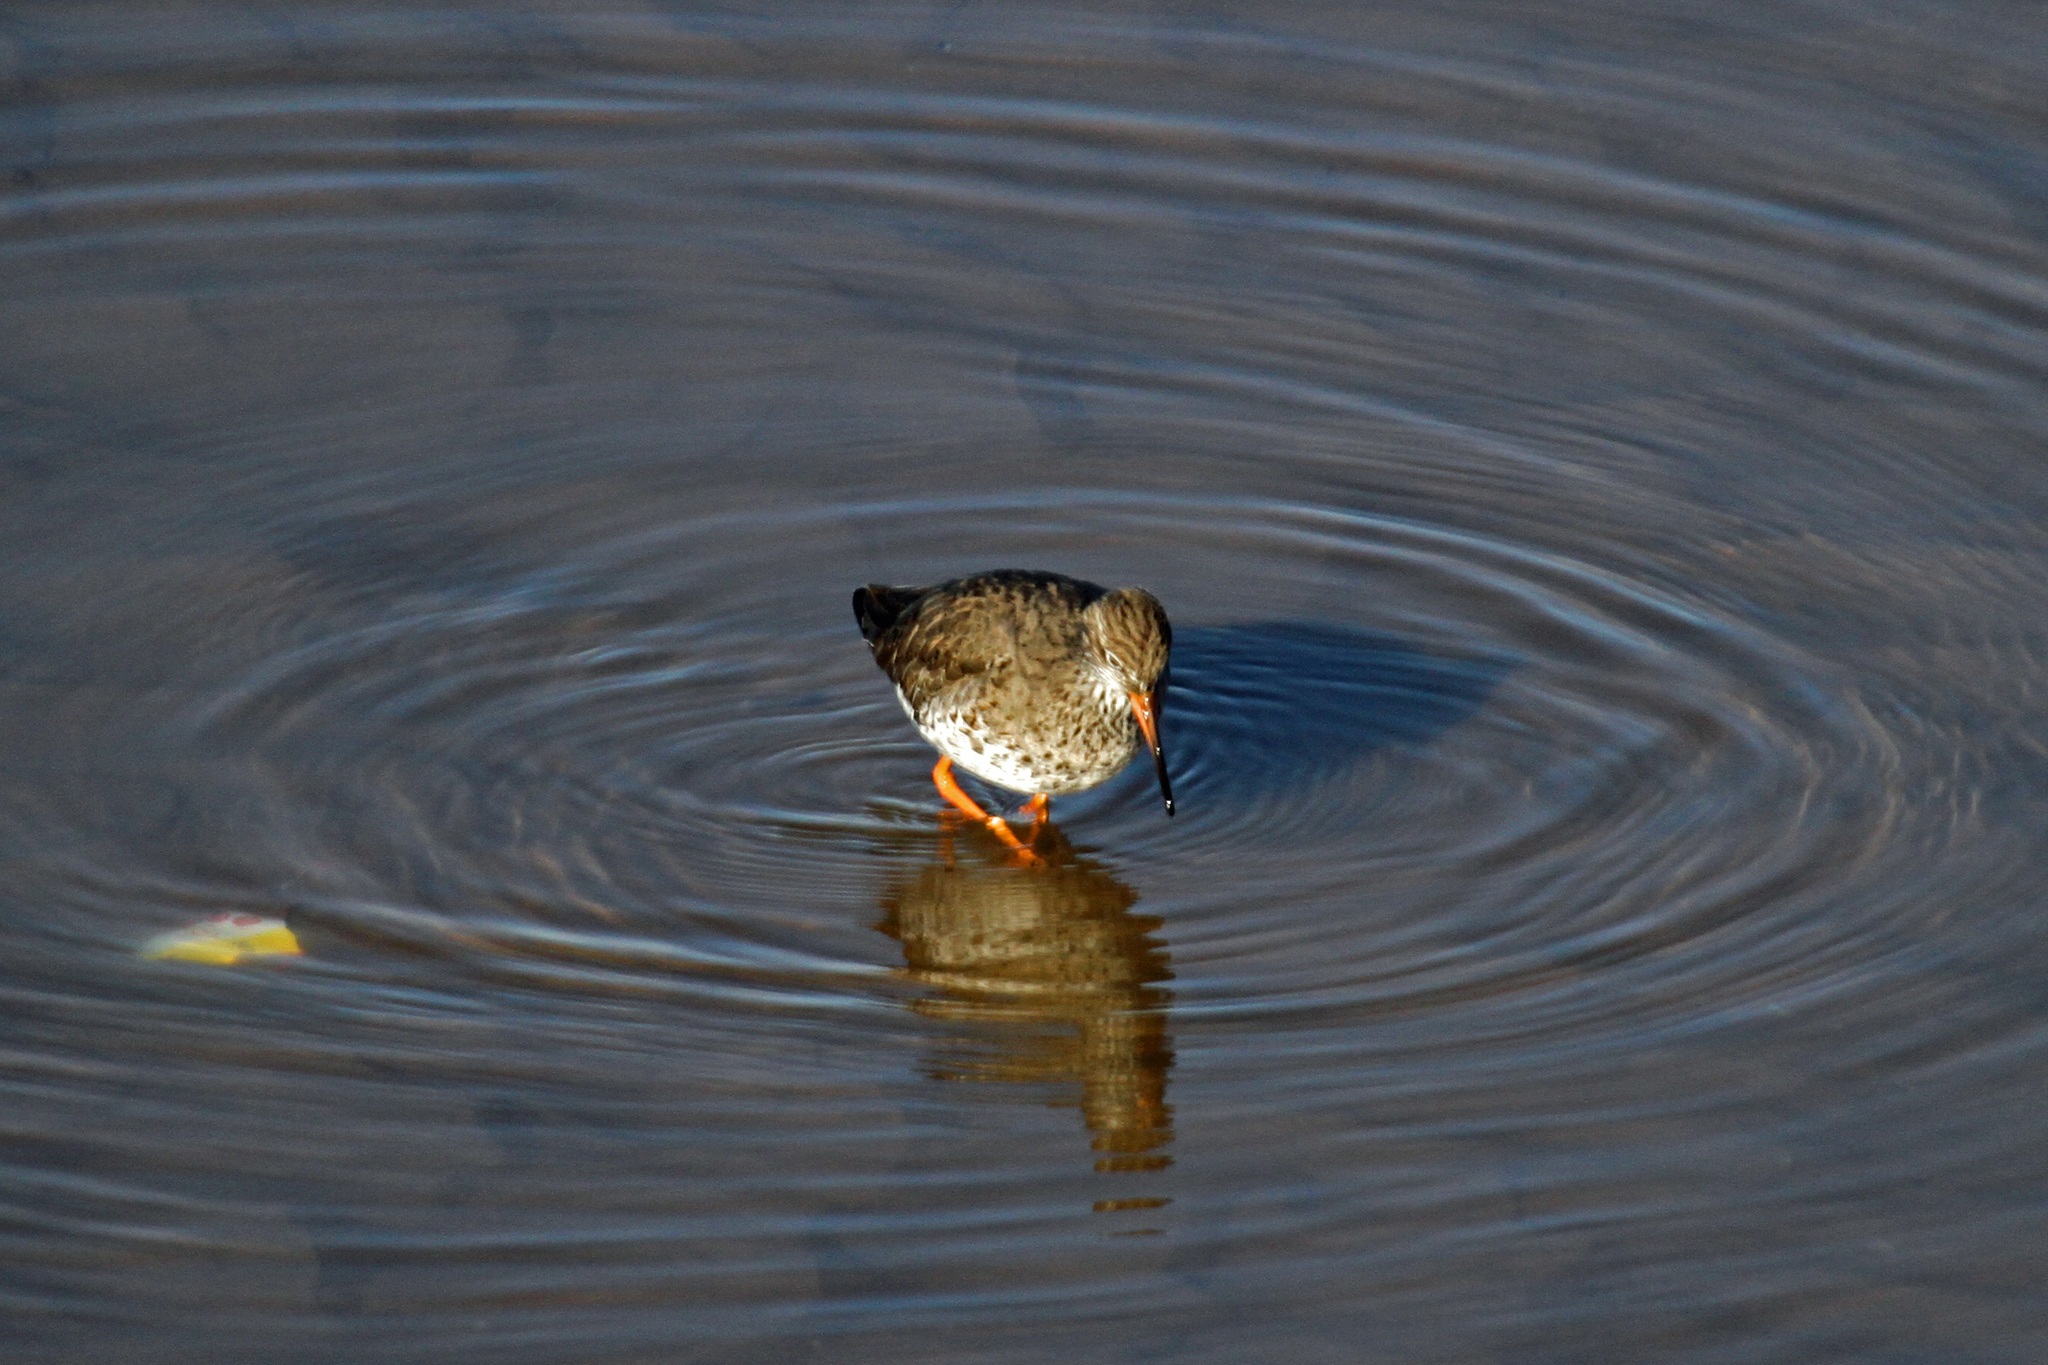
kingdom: Animalia
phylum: Chordata
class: Aves
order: Charadriiformes
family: Scolopacidae
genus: Tringa
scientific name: Tringa totanus
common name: Common redshank
